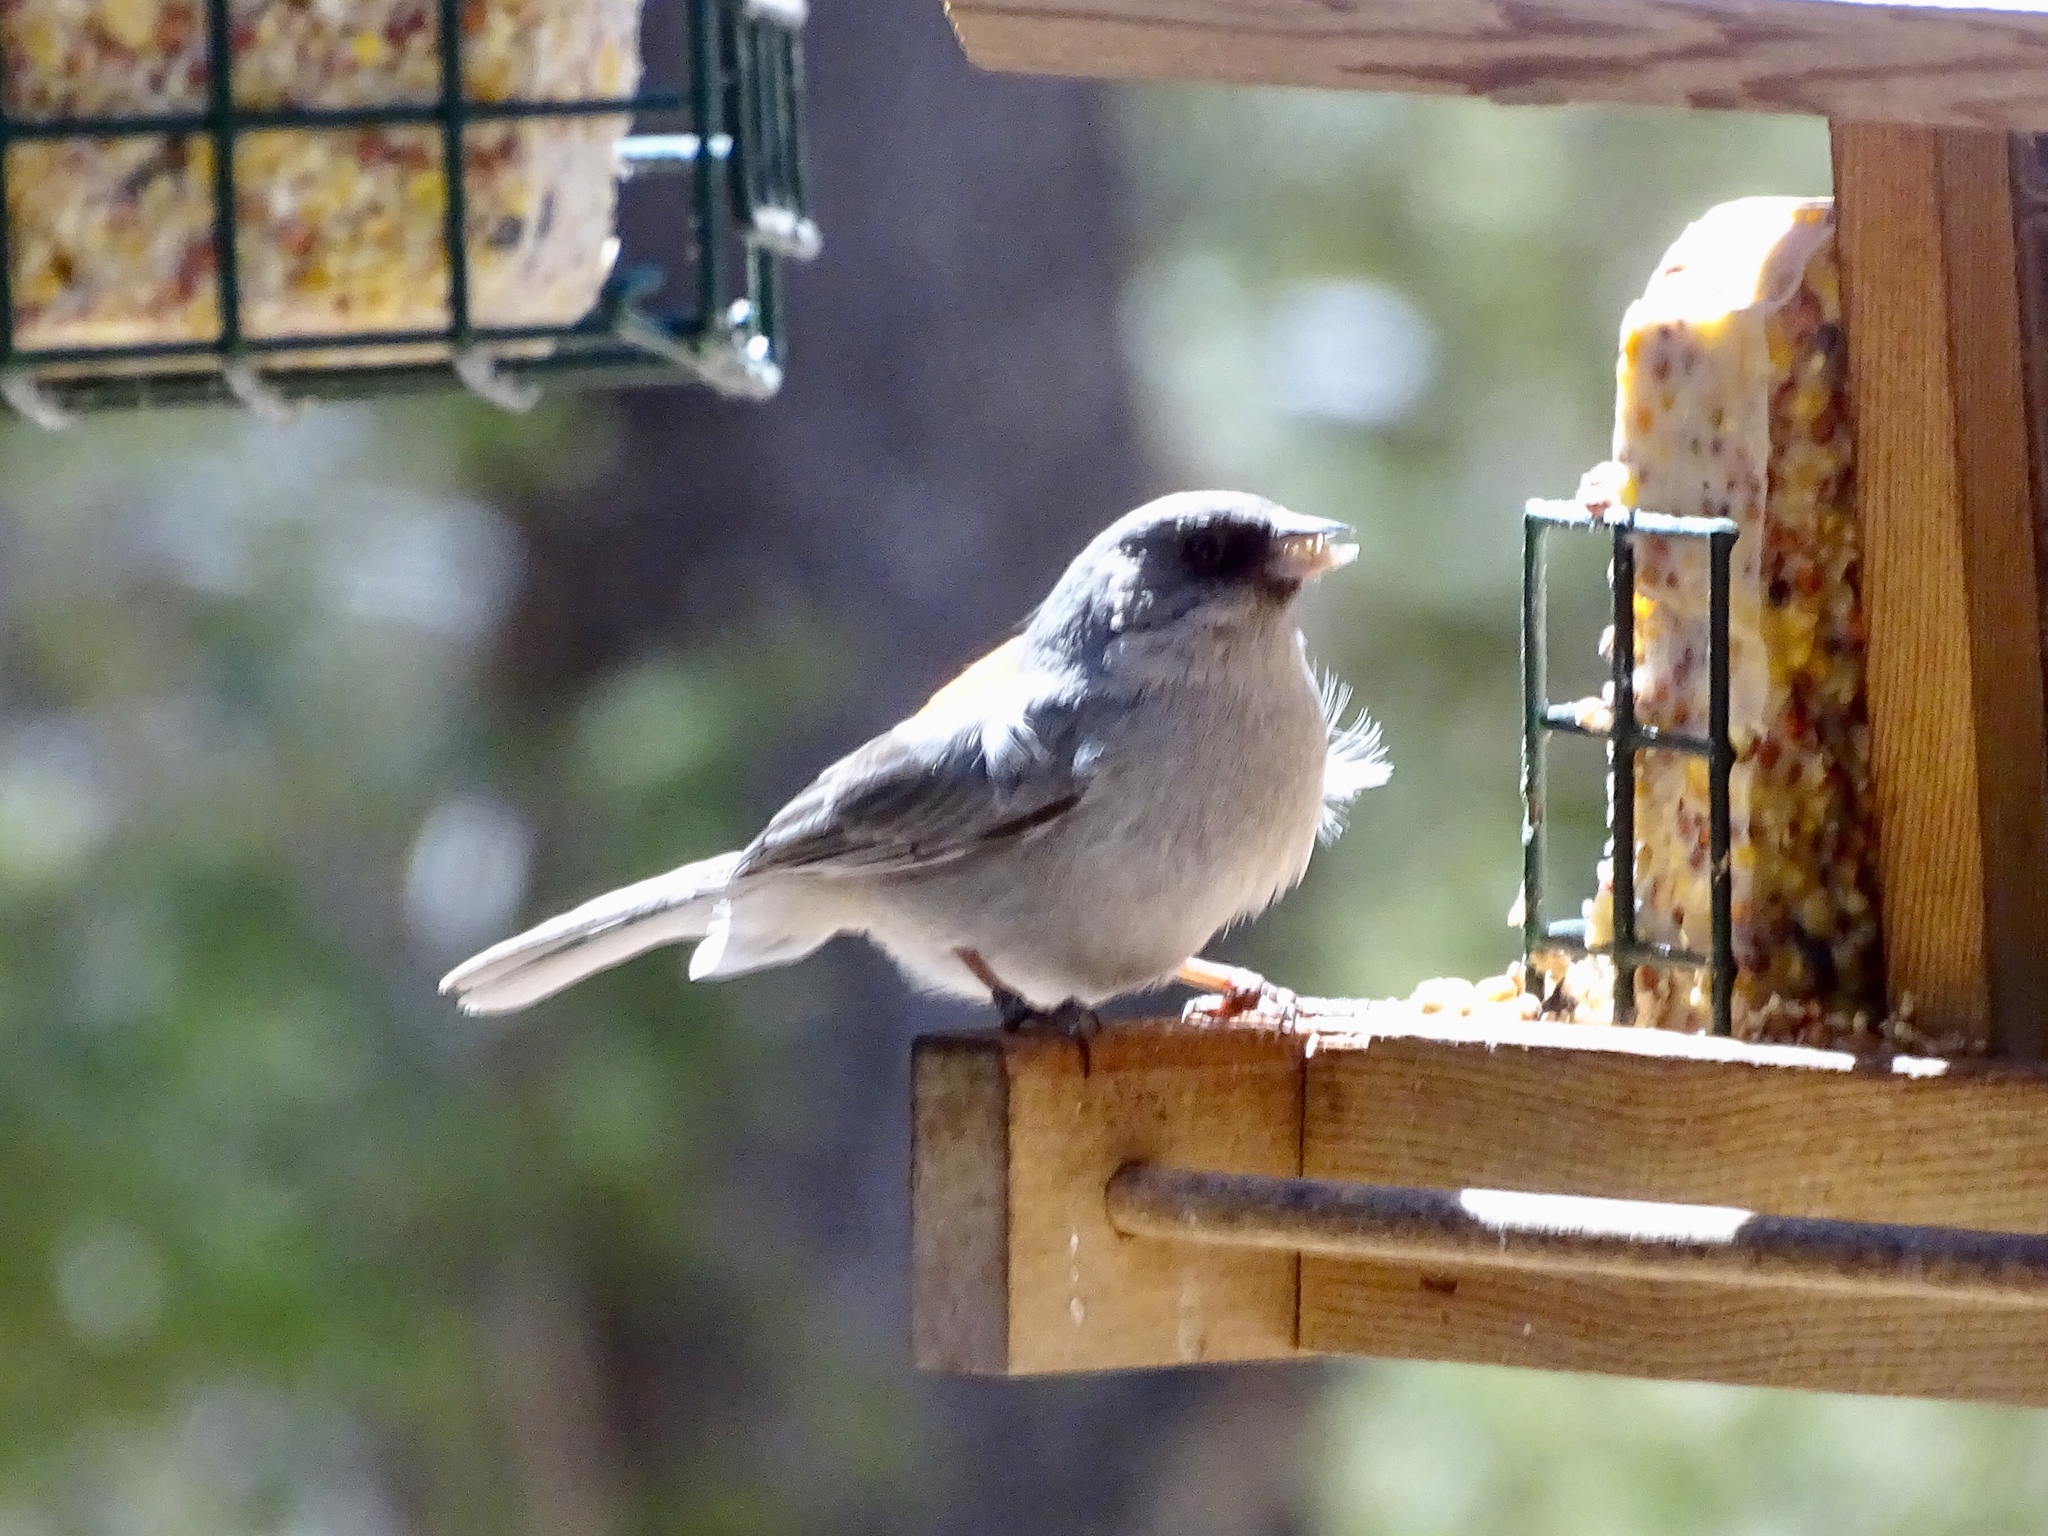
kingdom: Animalia
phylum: Chordata
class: Aves
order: Passeriformes
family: Passerellidae
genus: Junco
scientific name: Junco hyemalis
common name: Dark-eyed junco
